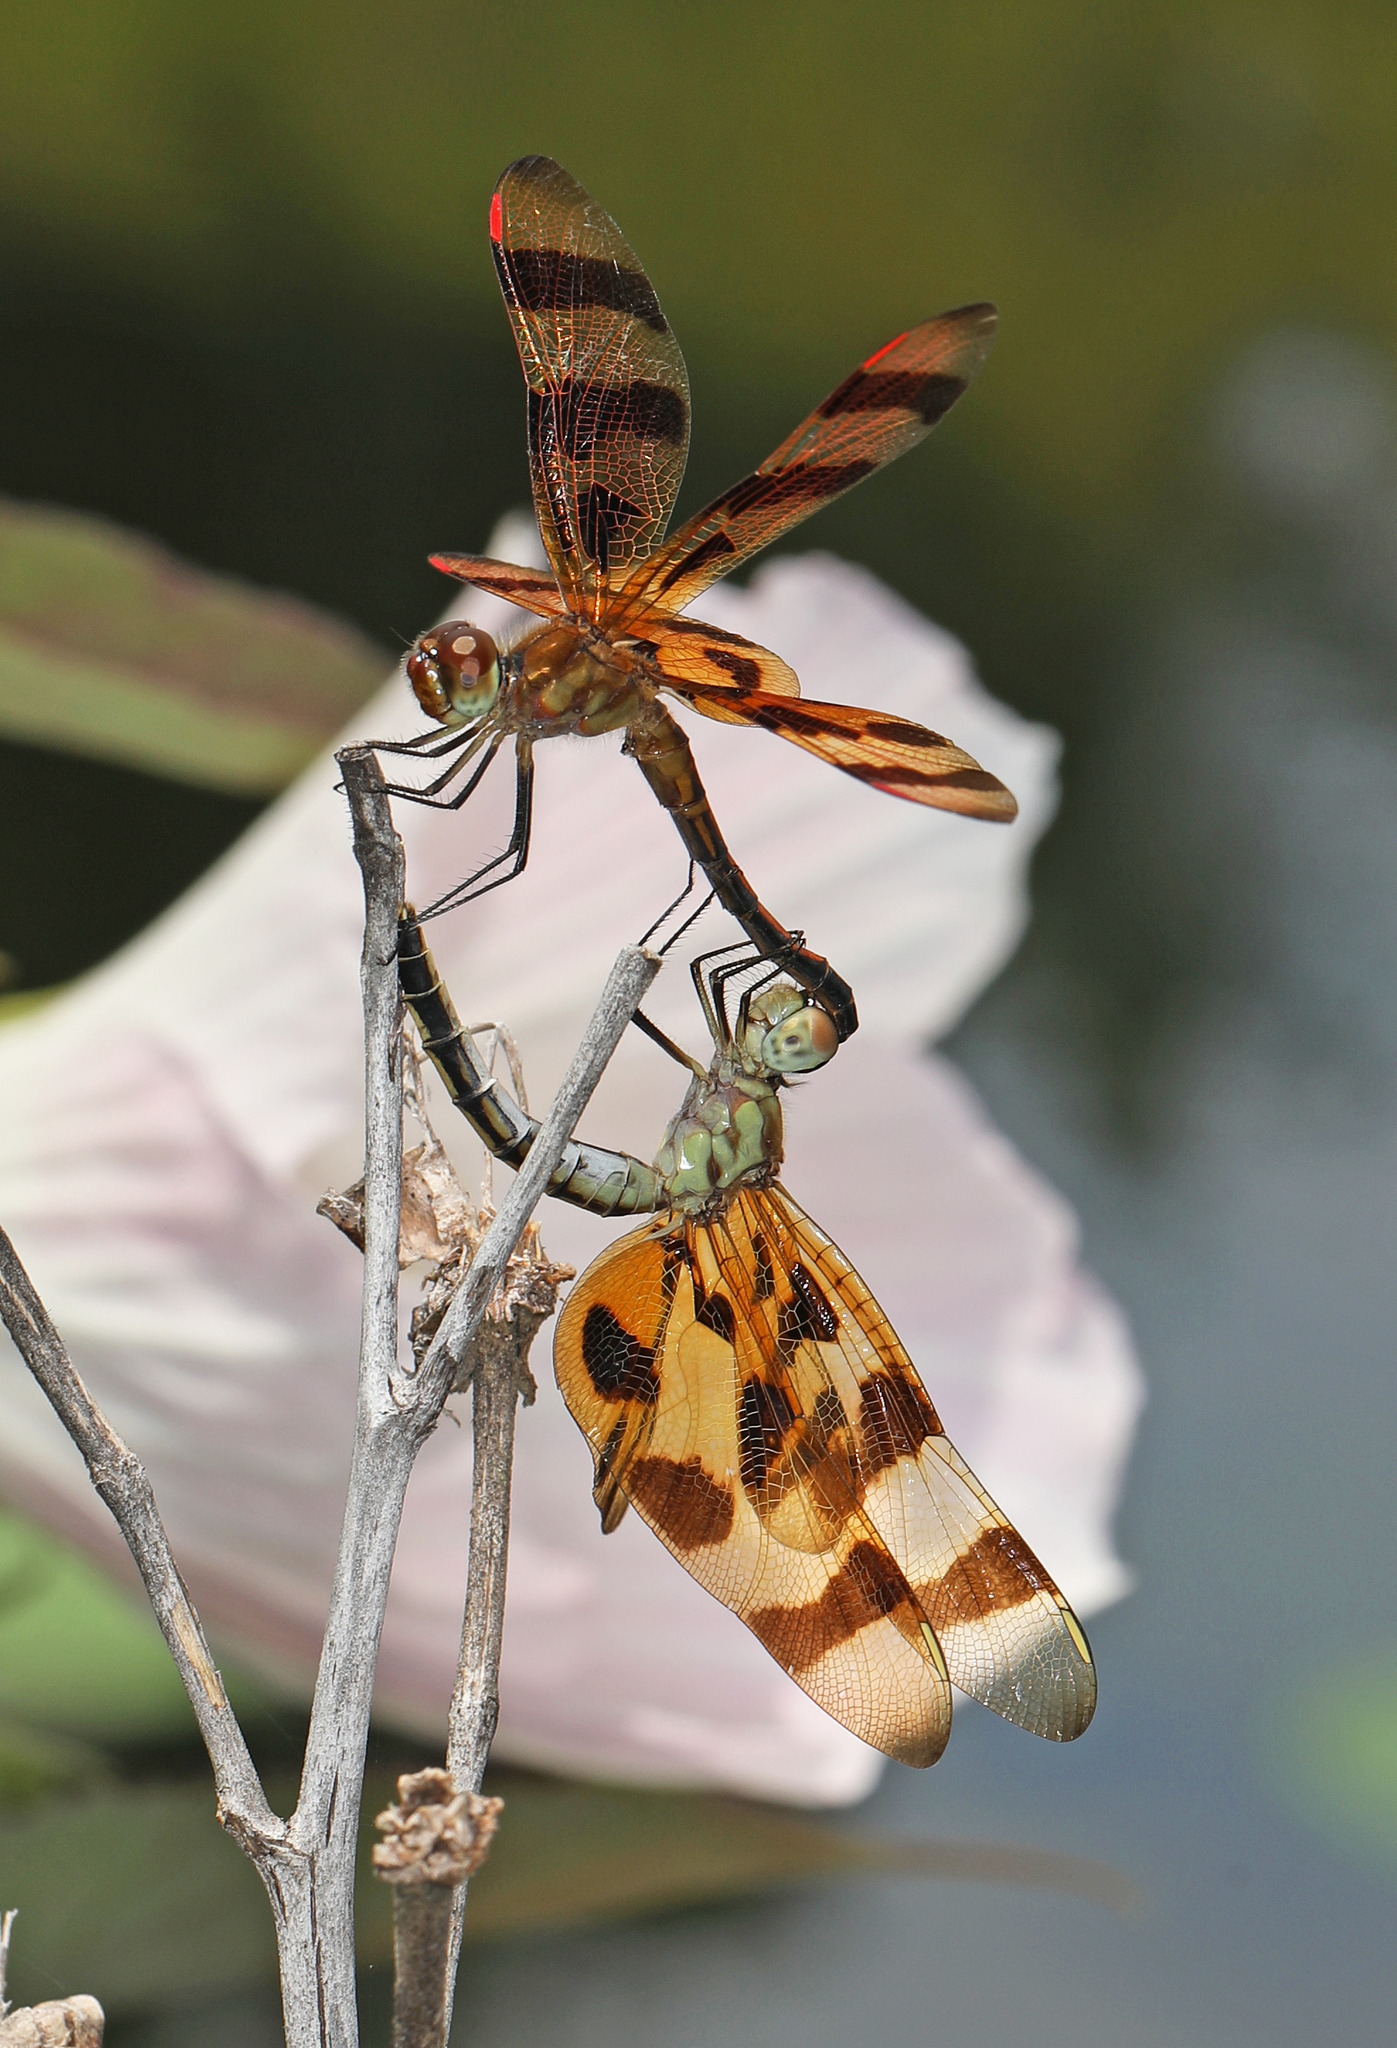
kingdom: Animalia
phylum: Arthropoda
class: Insecta
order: Odonata
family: Libellulidae
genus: Celithemis
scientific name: Celithemis eponina
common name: Halloween pennant
